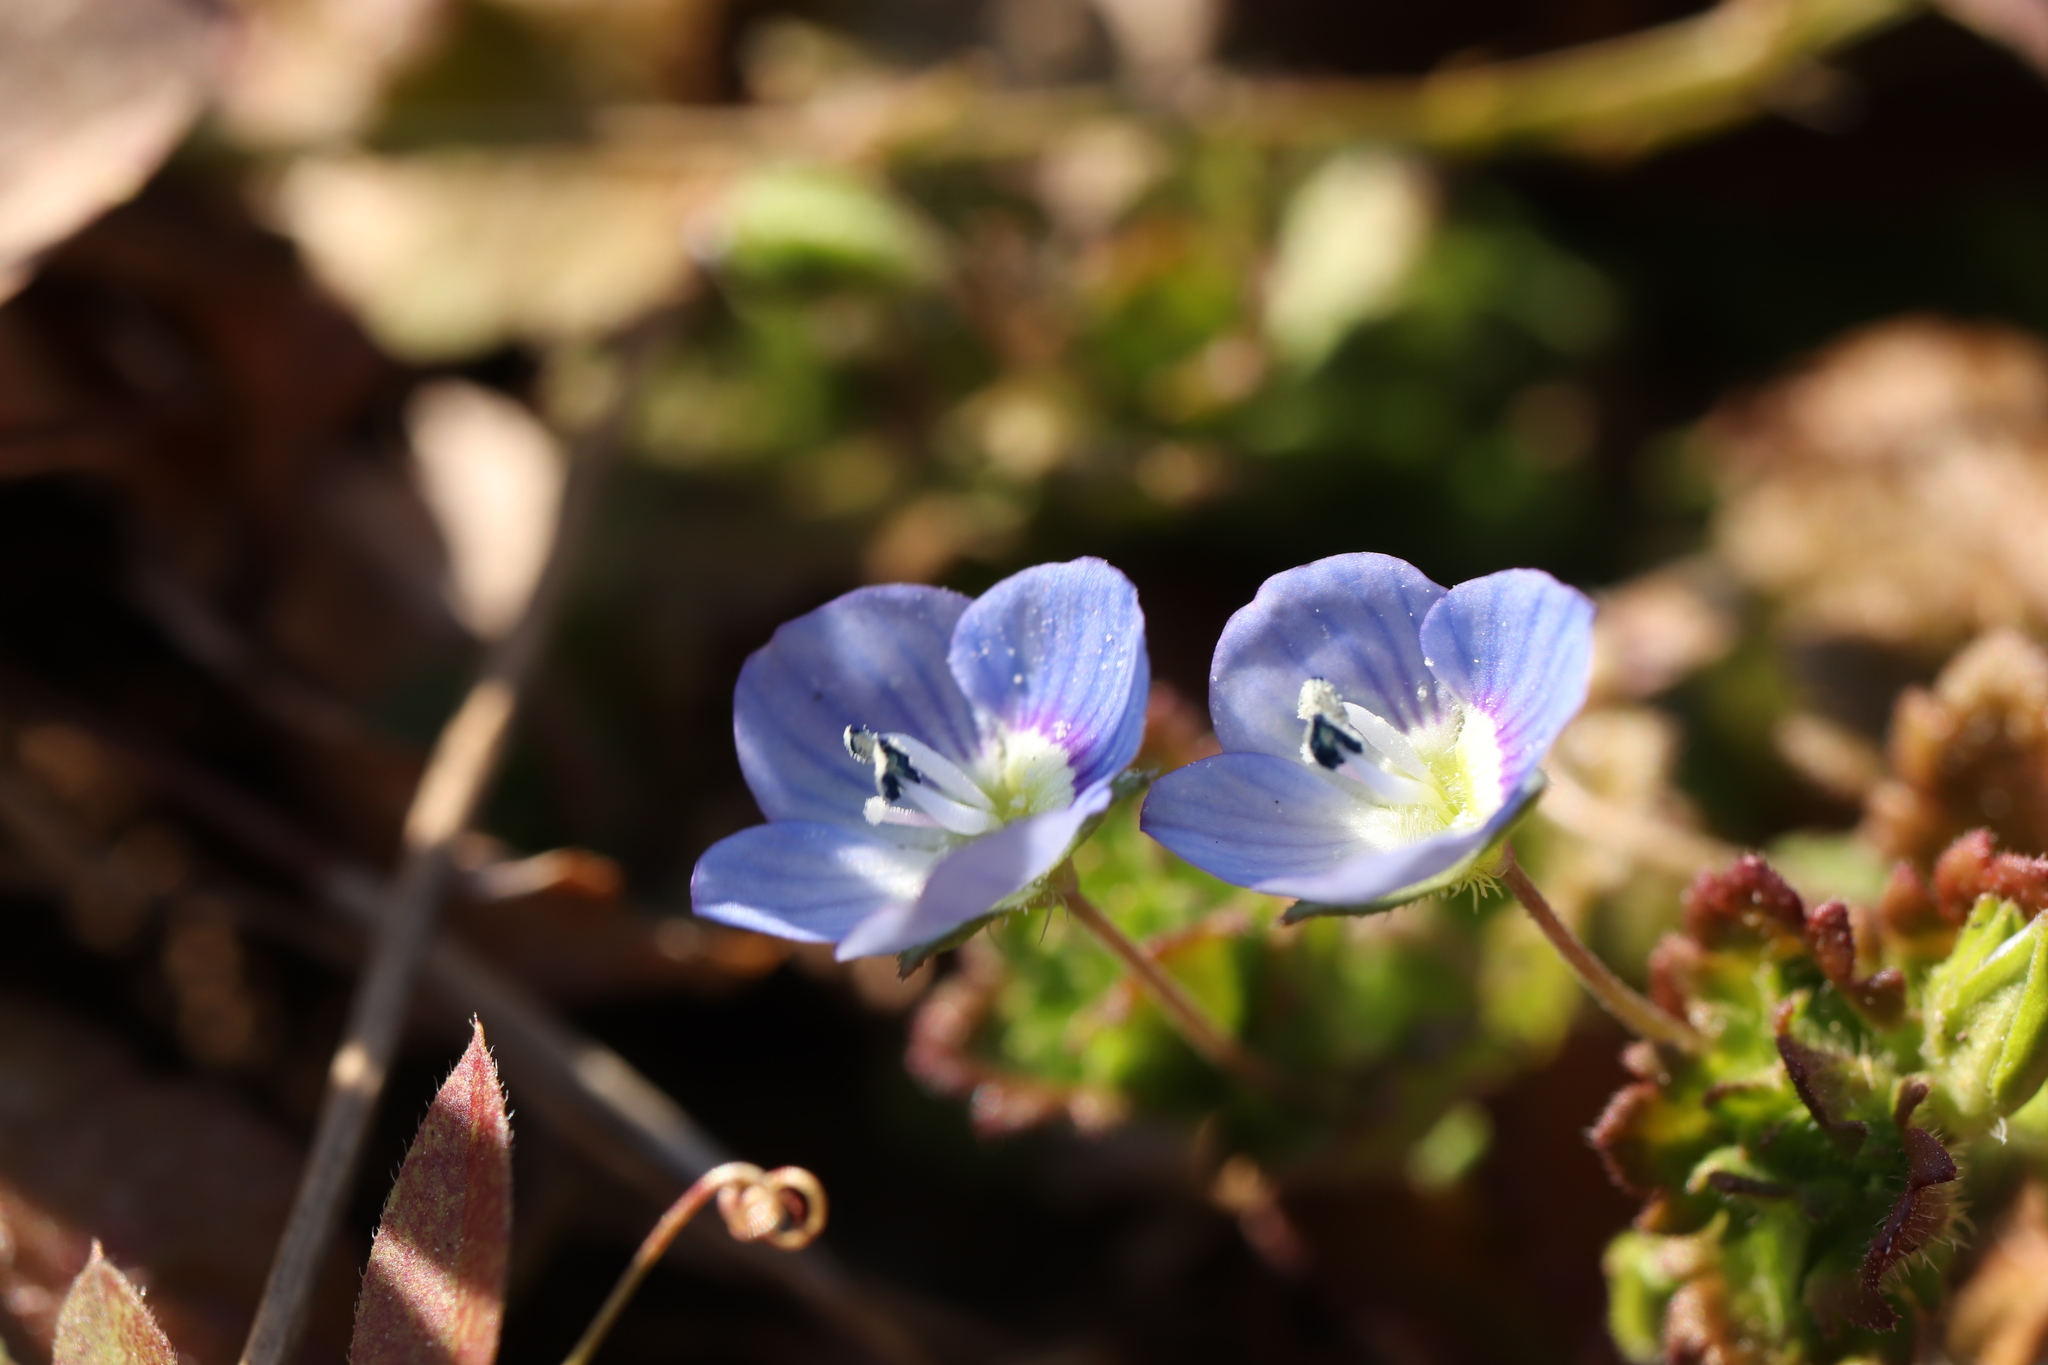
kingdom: Plantae
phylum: Tracheophyta
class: Magnoliopsida
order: Lamiales
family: Plantaginaceae
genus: Veronica
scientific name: Veronica persica
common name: Common field-speedwell
